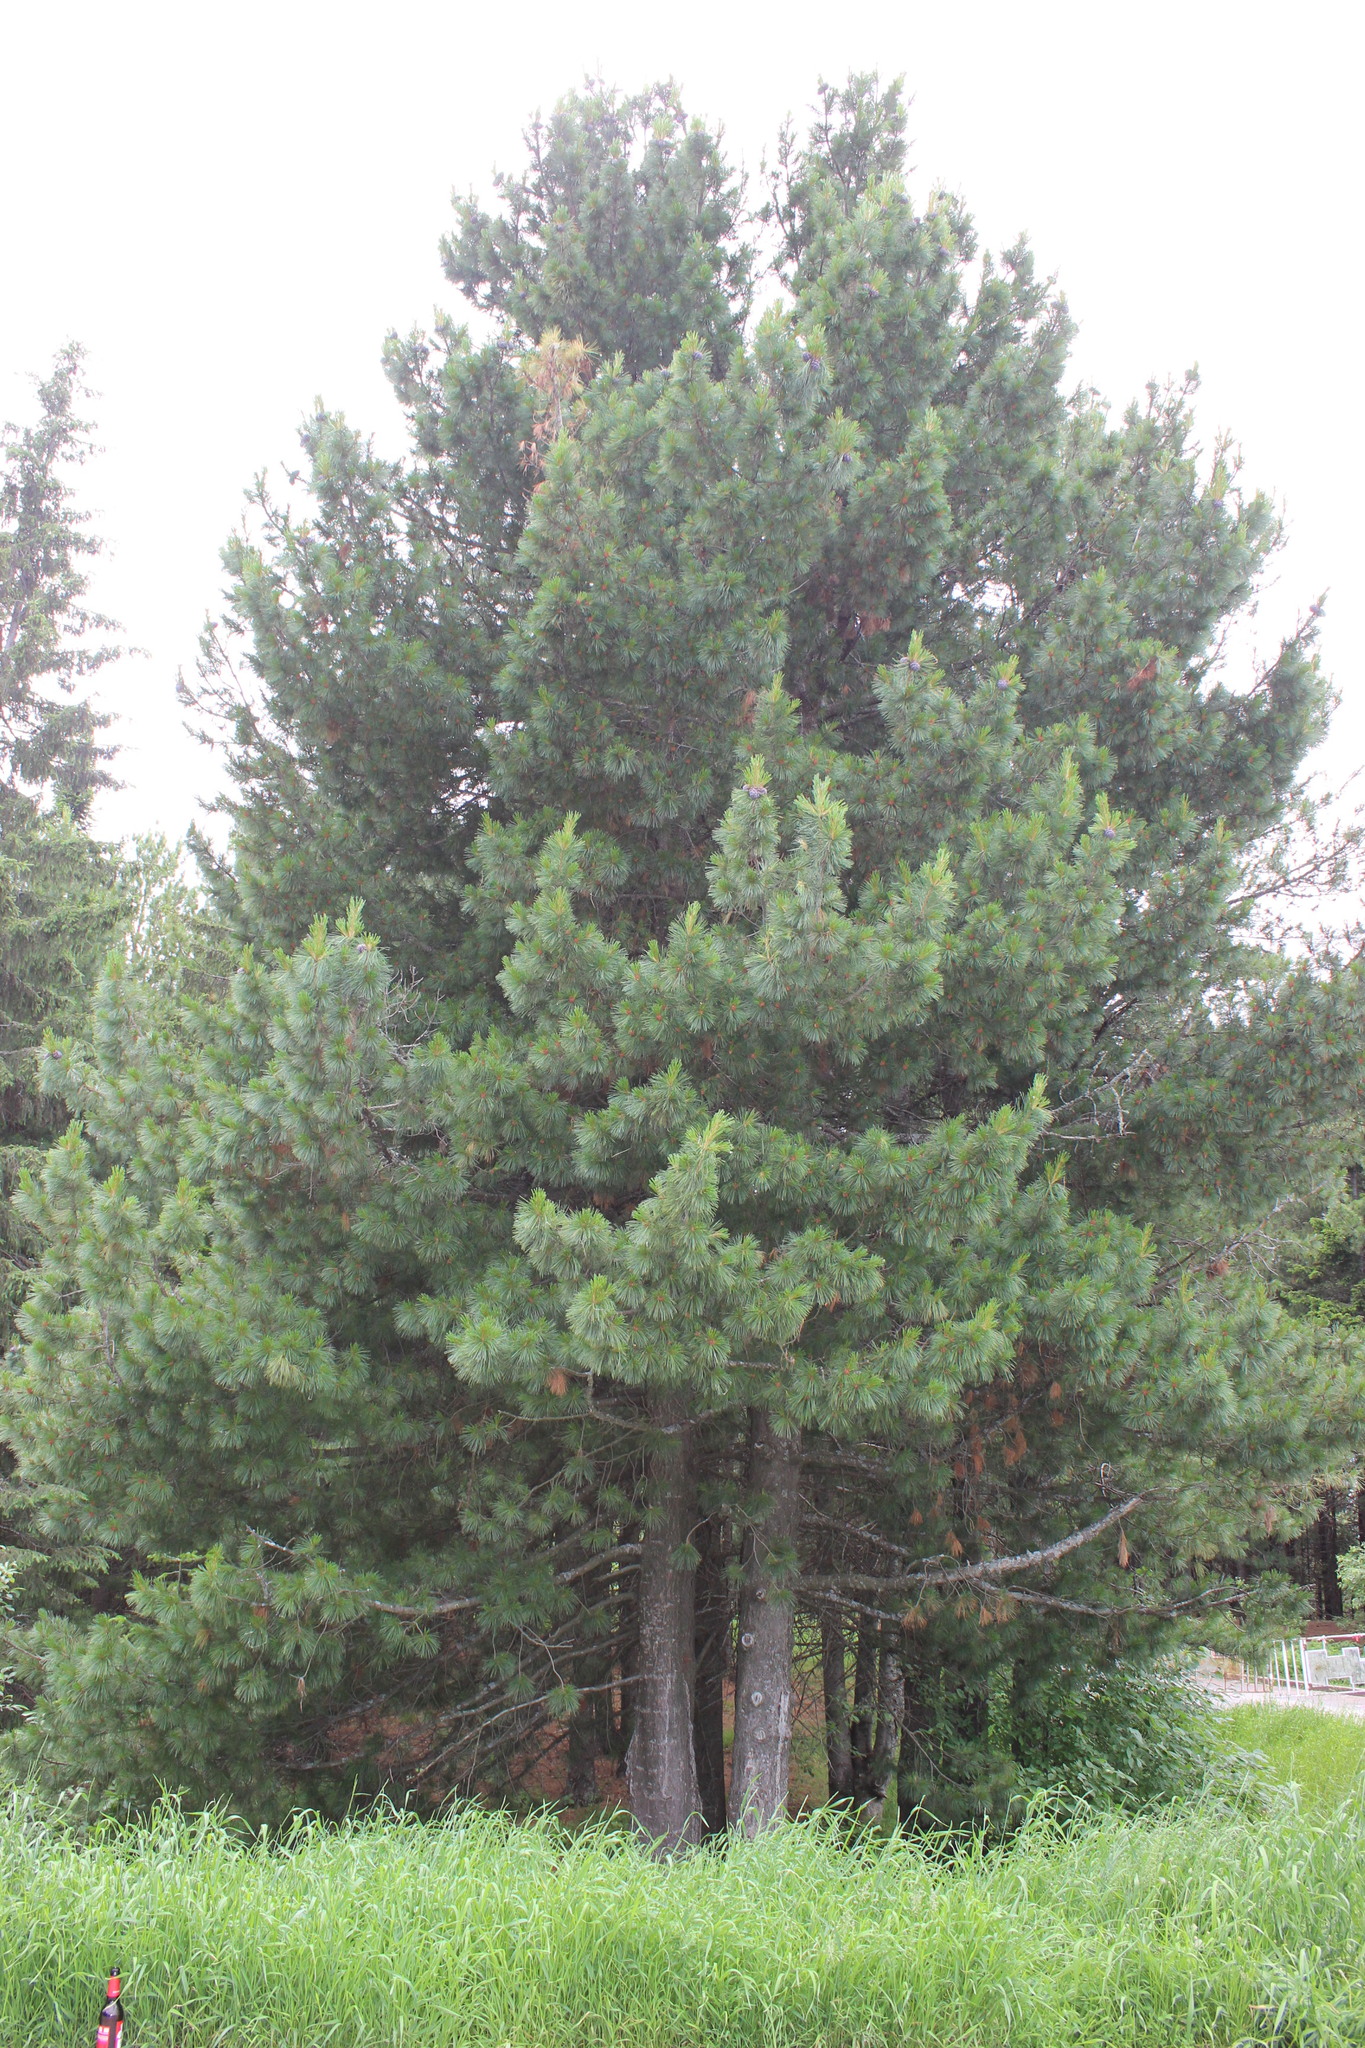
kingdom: Plantae
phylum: Tracheophyta
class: Pinopsida
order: Pinales
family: Pinaceae
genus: Pinus
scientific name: Pinus sibirica
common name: Siberian pine
